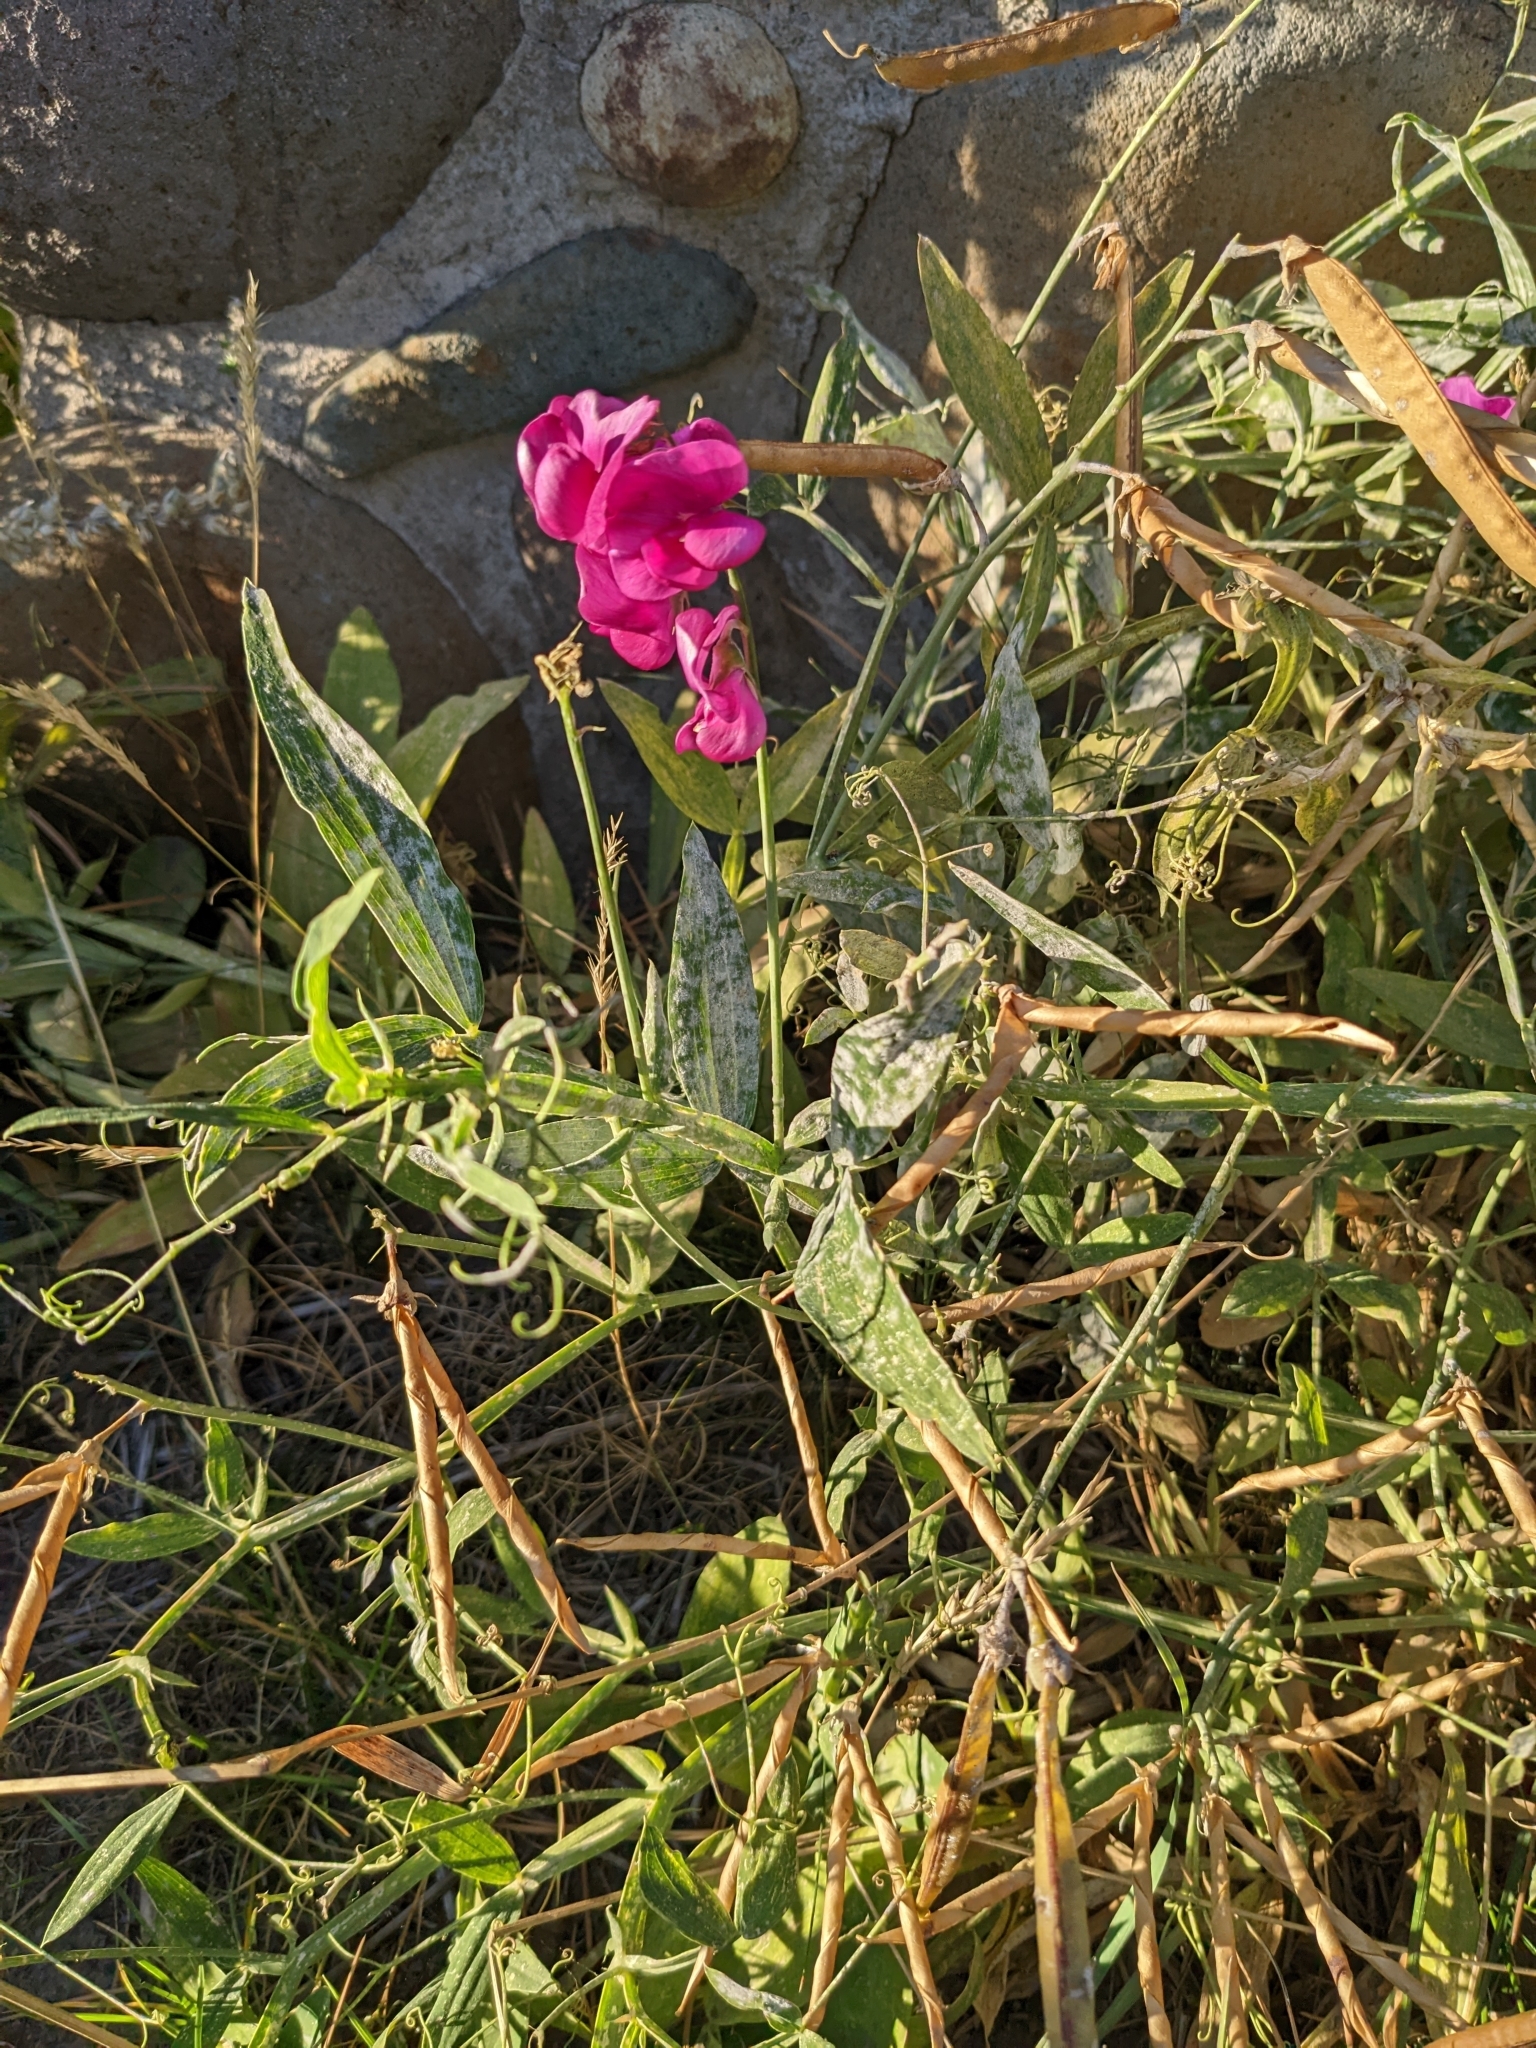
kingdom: Plantae
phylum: Tracheophyta
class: Magnoliopsida
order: Fabales
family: Fabaceae
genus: Lathyrus
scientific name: Lathyrus latifolius
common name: Perennial pea
